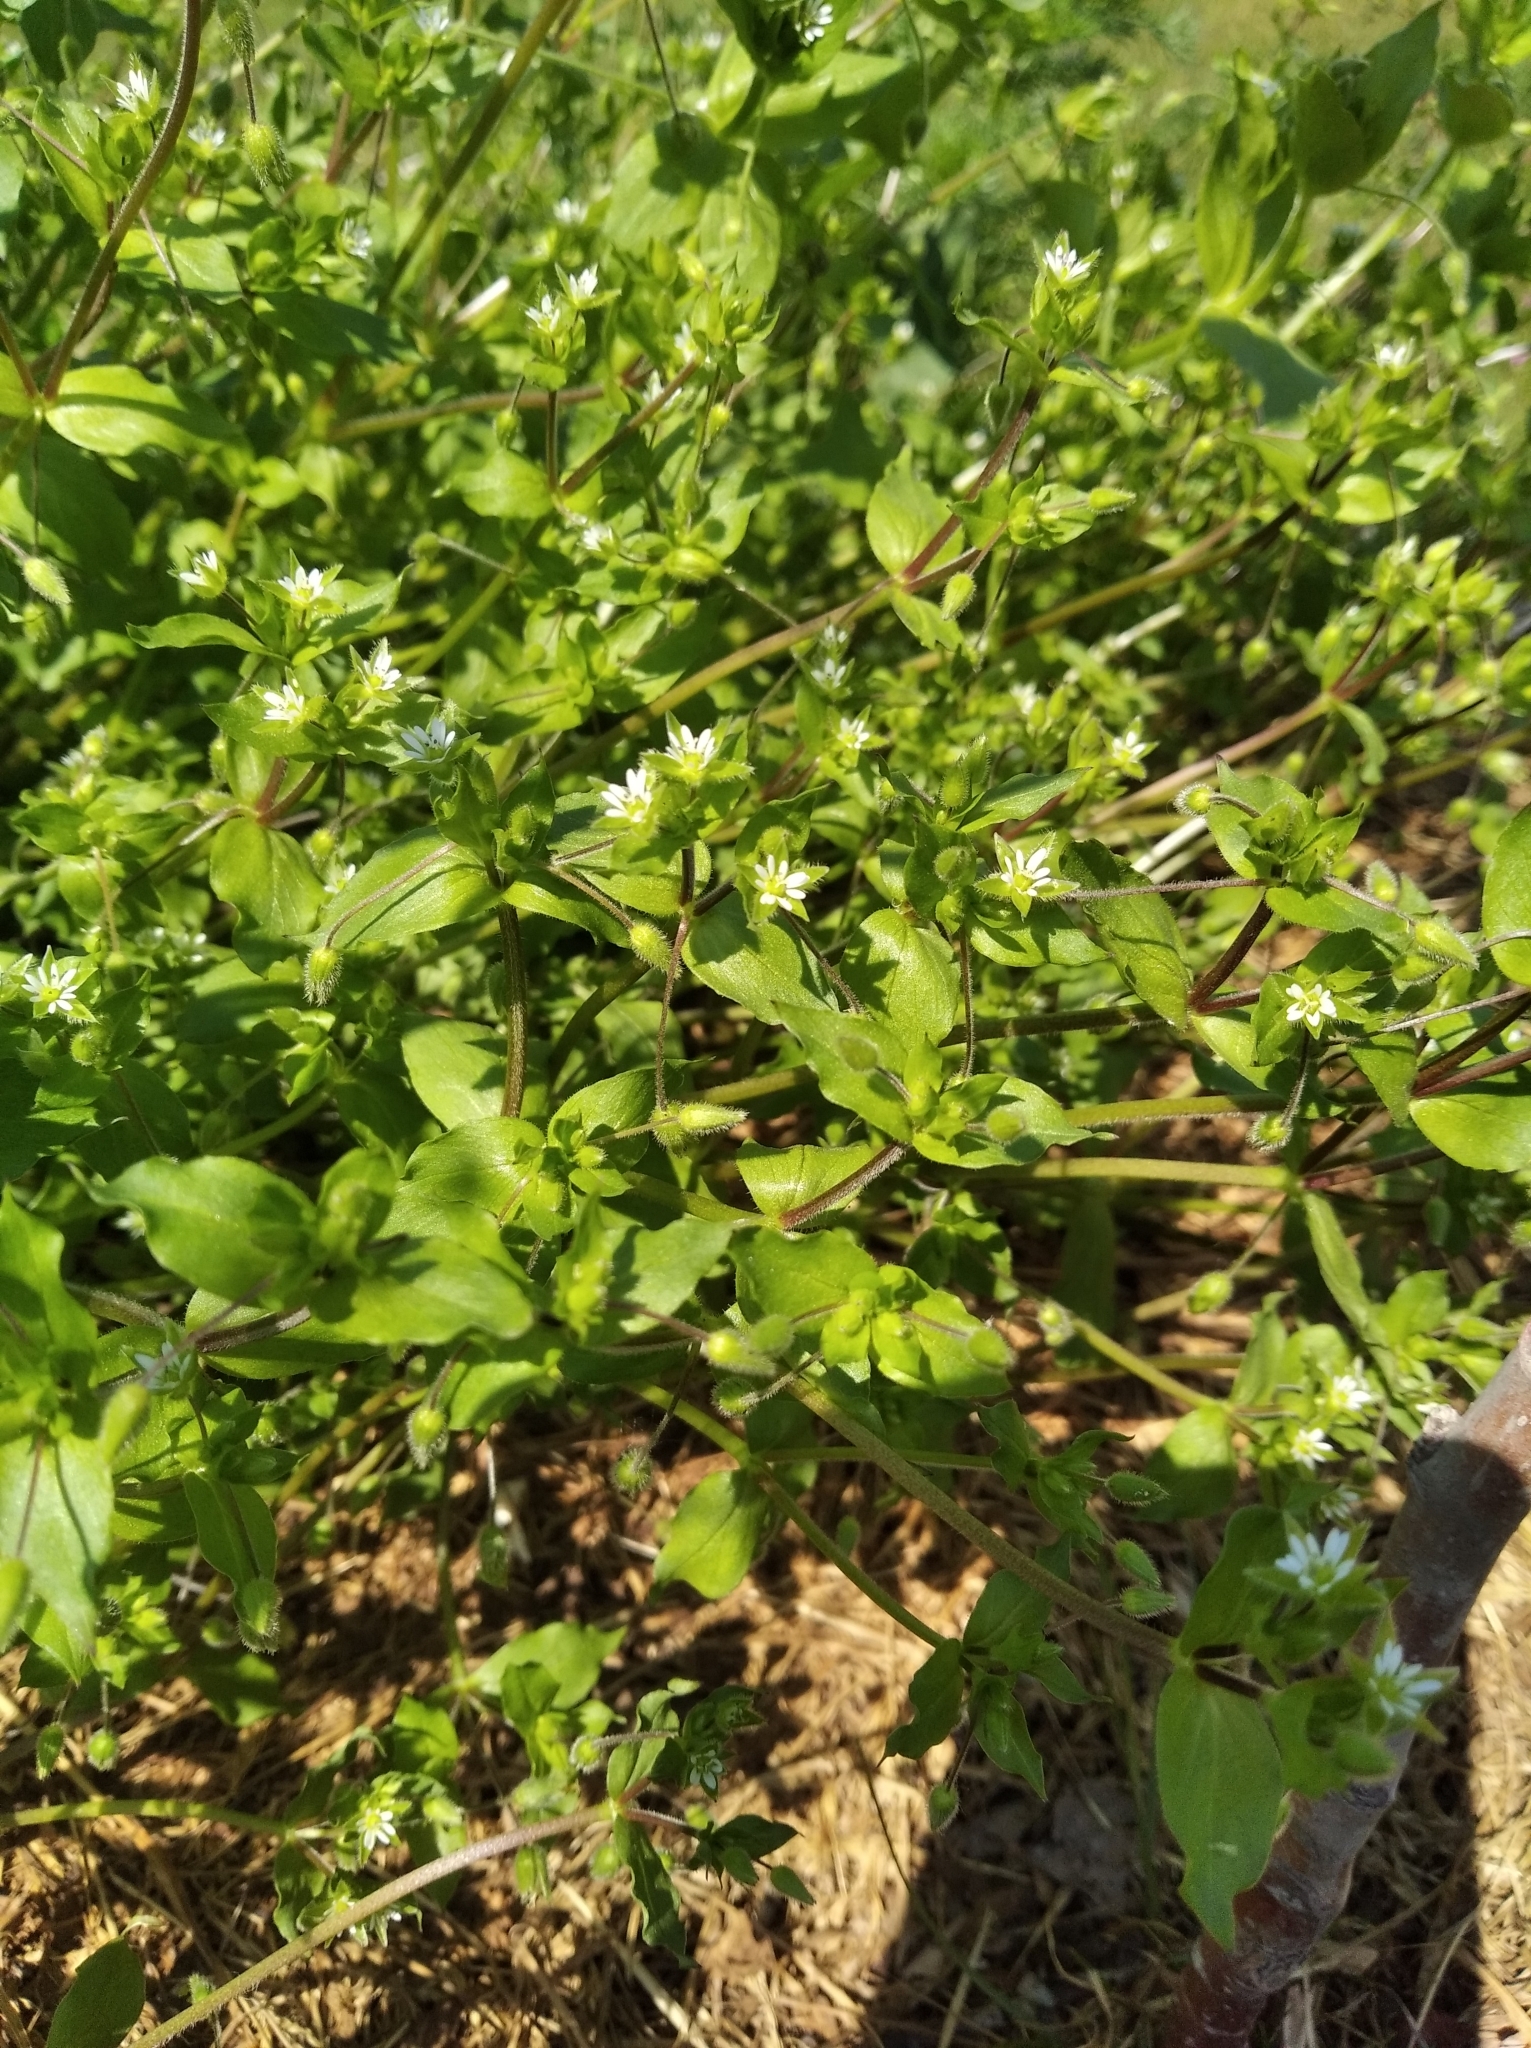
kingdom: Plantae
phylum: Tracheophyta
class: Magnoliopsida
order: Caryophyllales
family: Caryophyllaceae
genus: Stellaria
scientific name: Stellaria media
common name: Common chickweed
